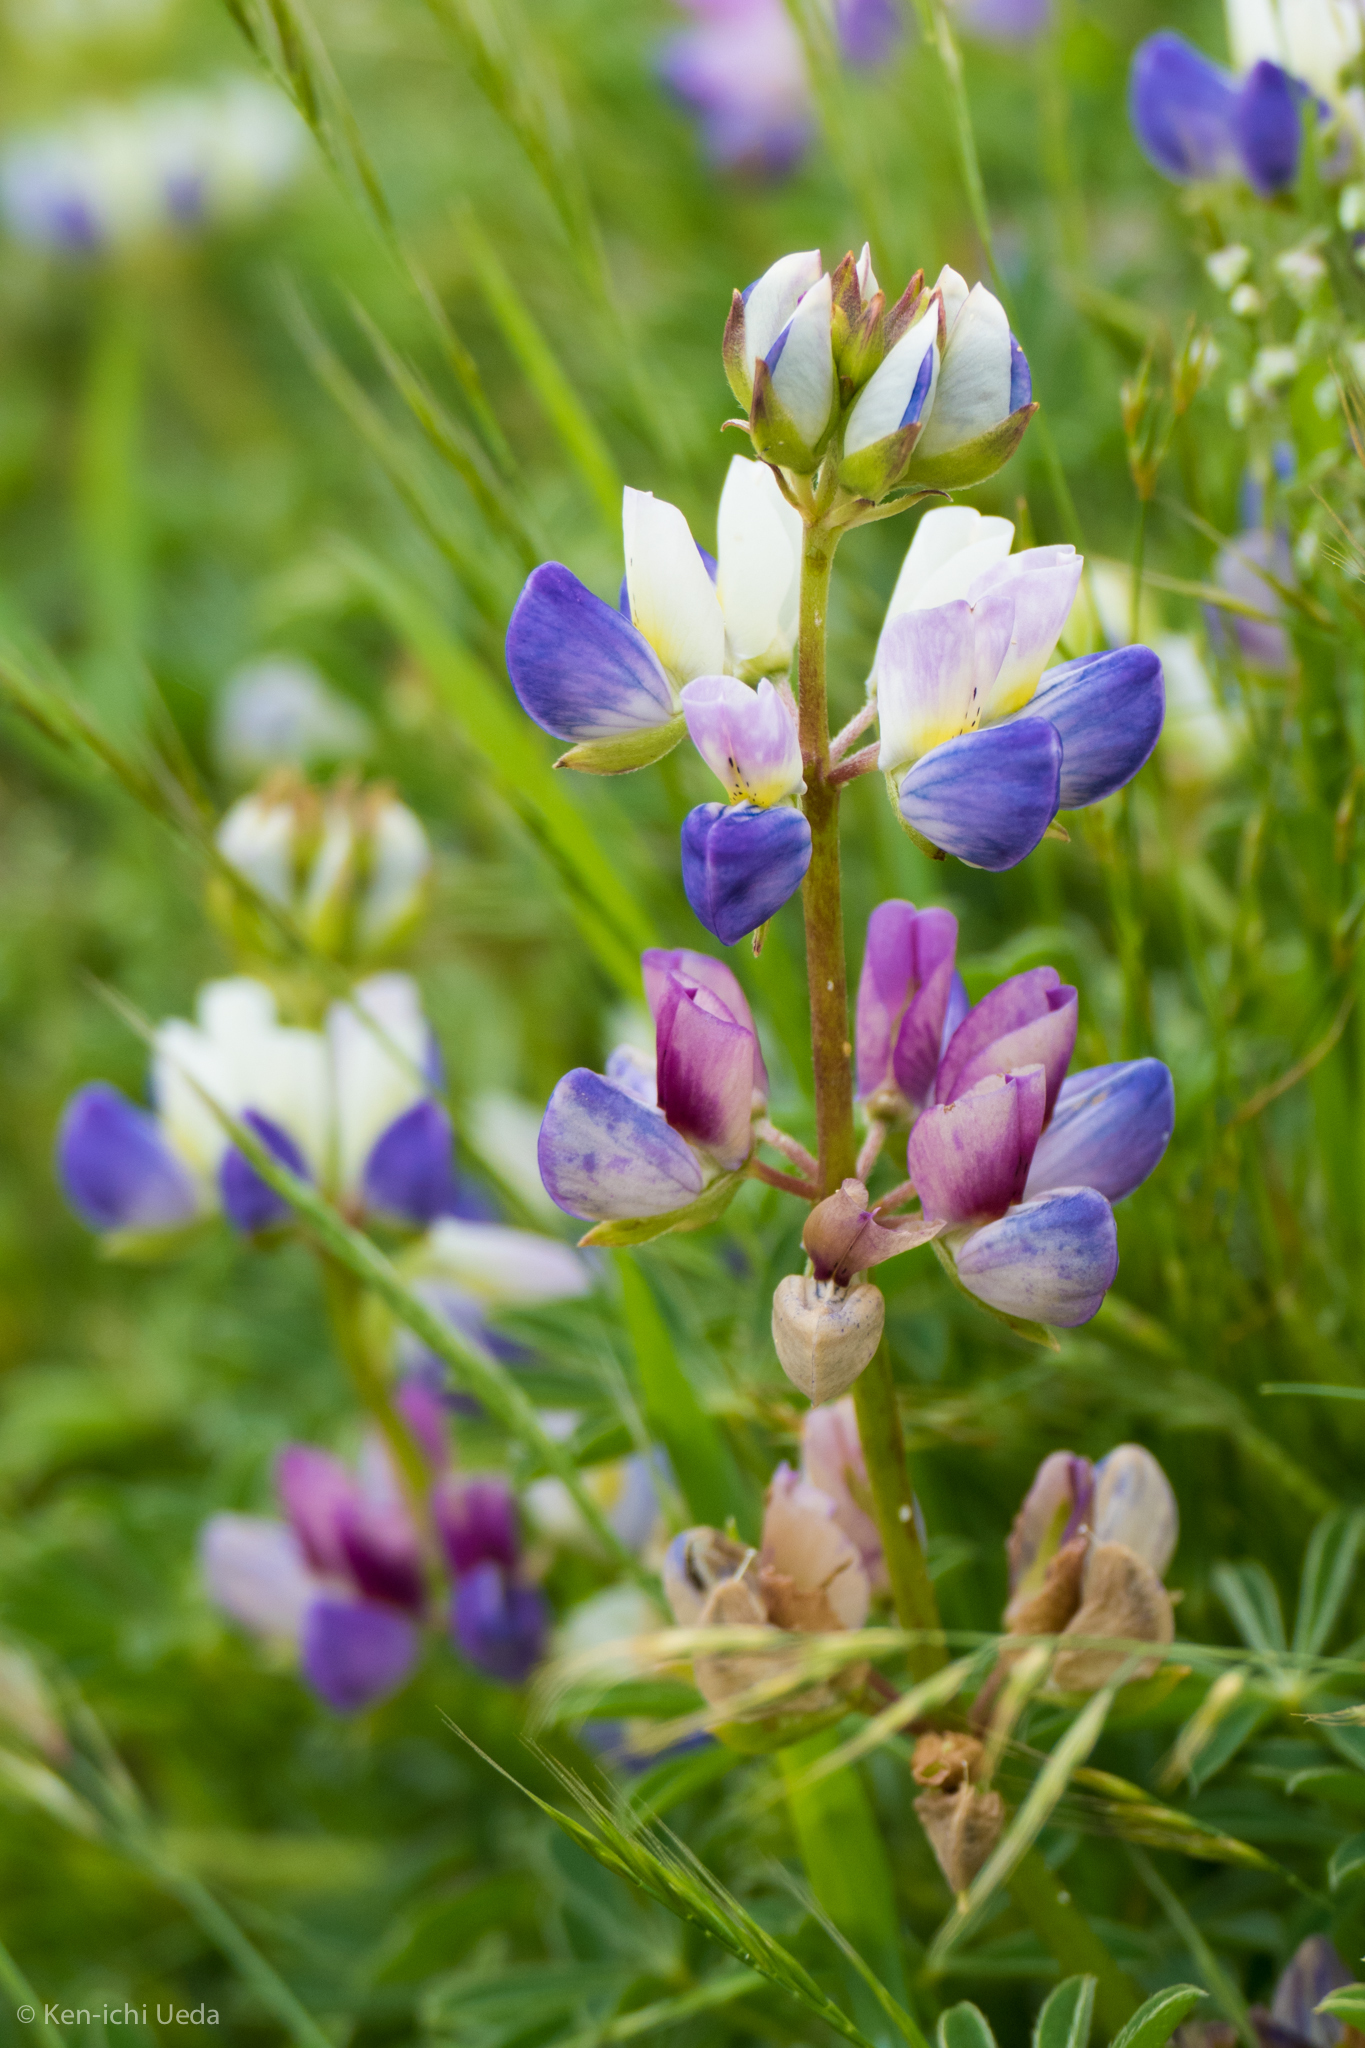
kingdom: Plantae
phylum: Tracheophyta
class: Magnoliopsida
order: Fabales
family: Fabaceae
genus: Lupinus
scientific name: Lupinus variicolor
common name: Lindley's varied lupine
